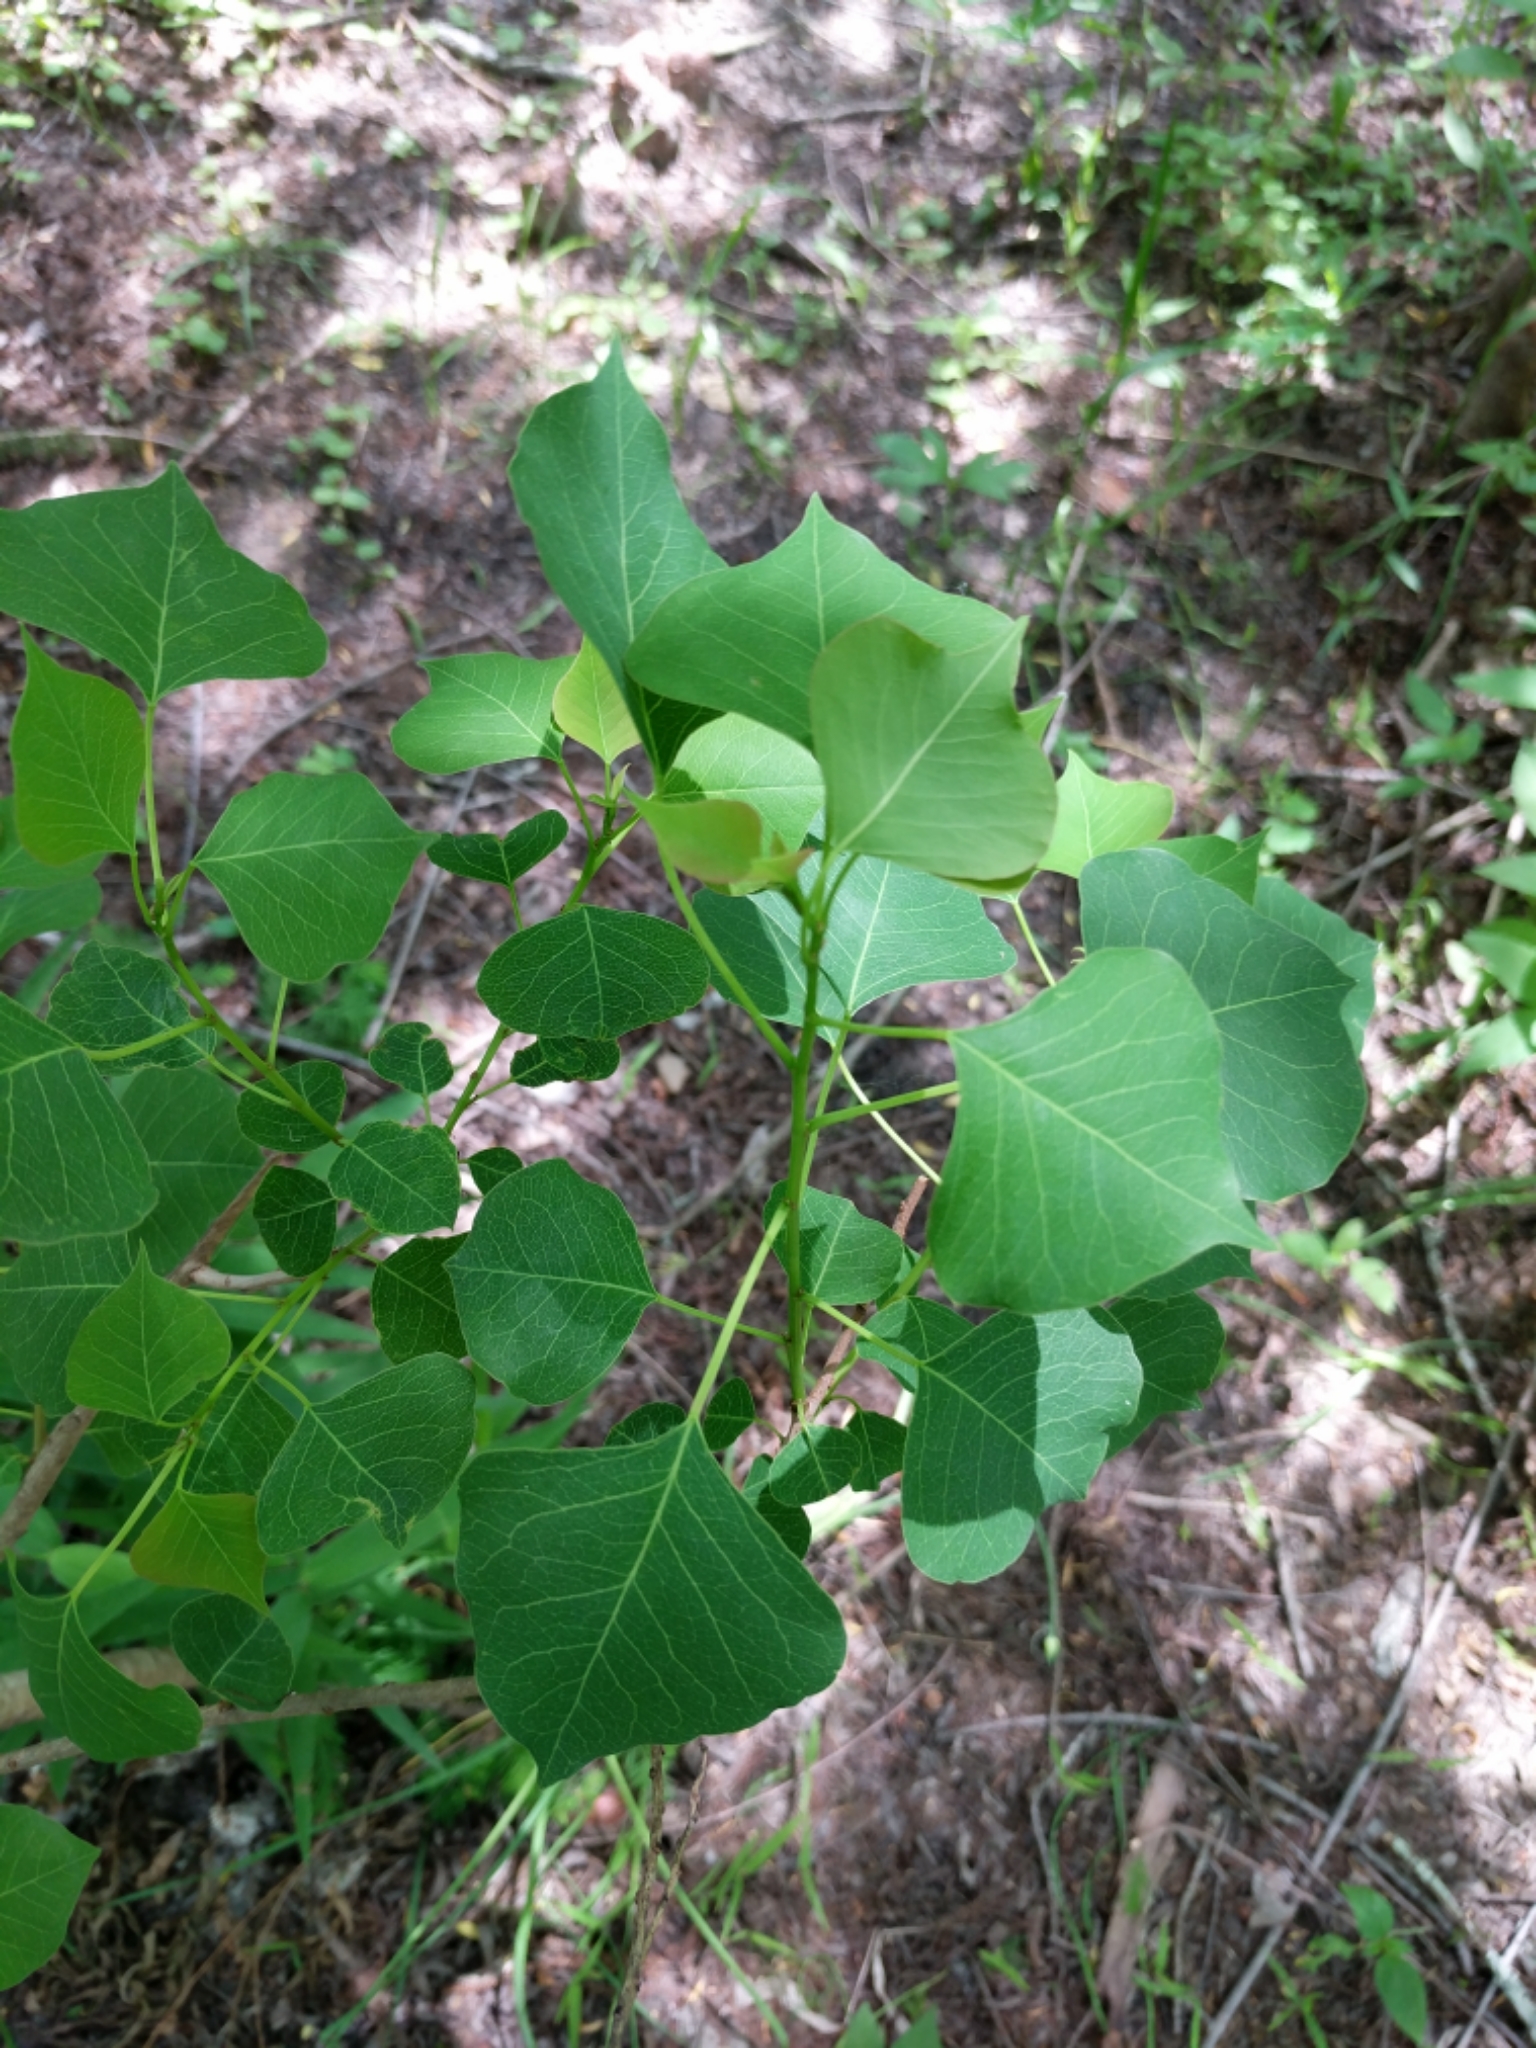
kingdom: Plantae
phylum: Tracheophyta
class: Magnoliopsida
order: Malpighiales
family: Euphorbiaceae
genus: Triadica
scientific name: Triadica sebifera
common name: Chinese tallow
